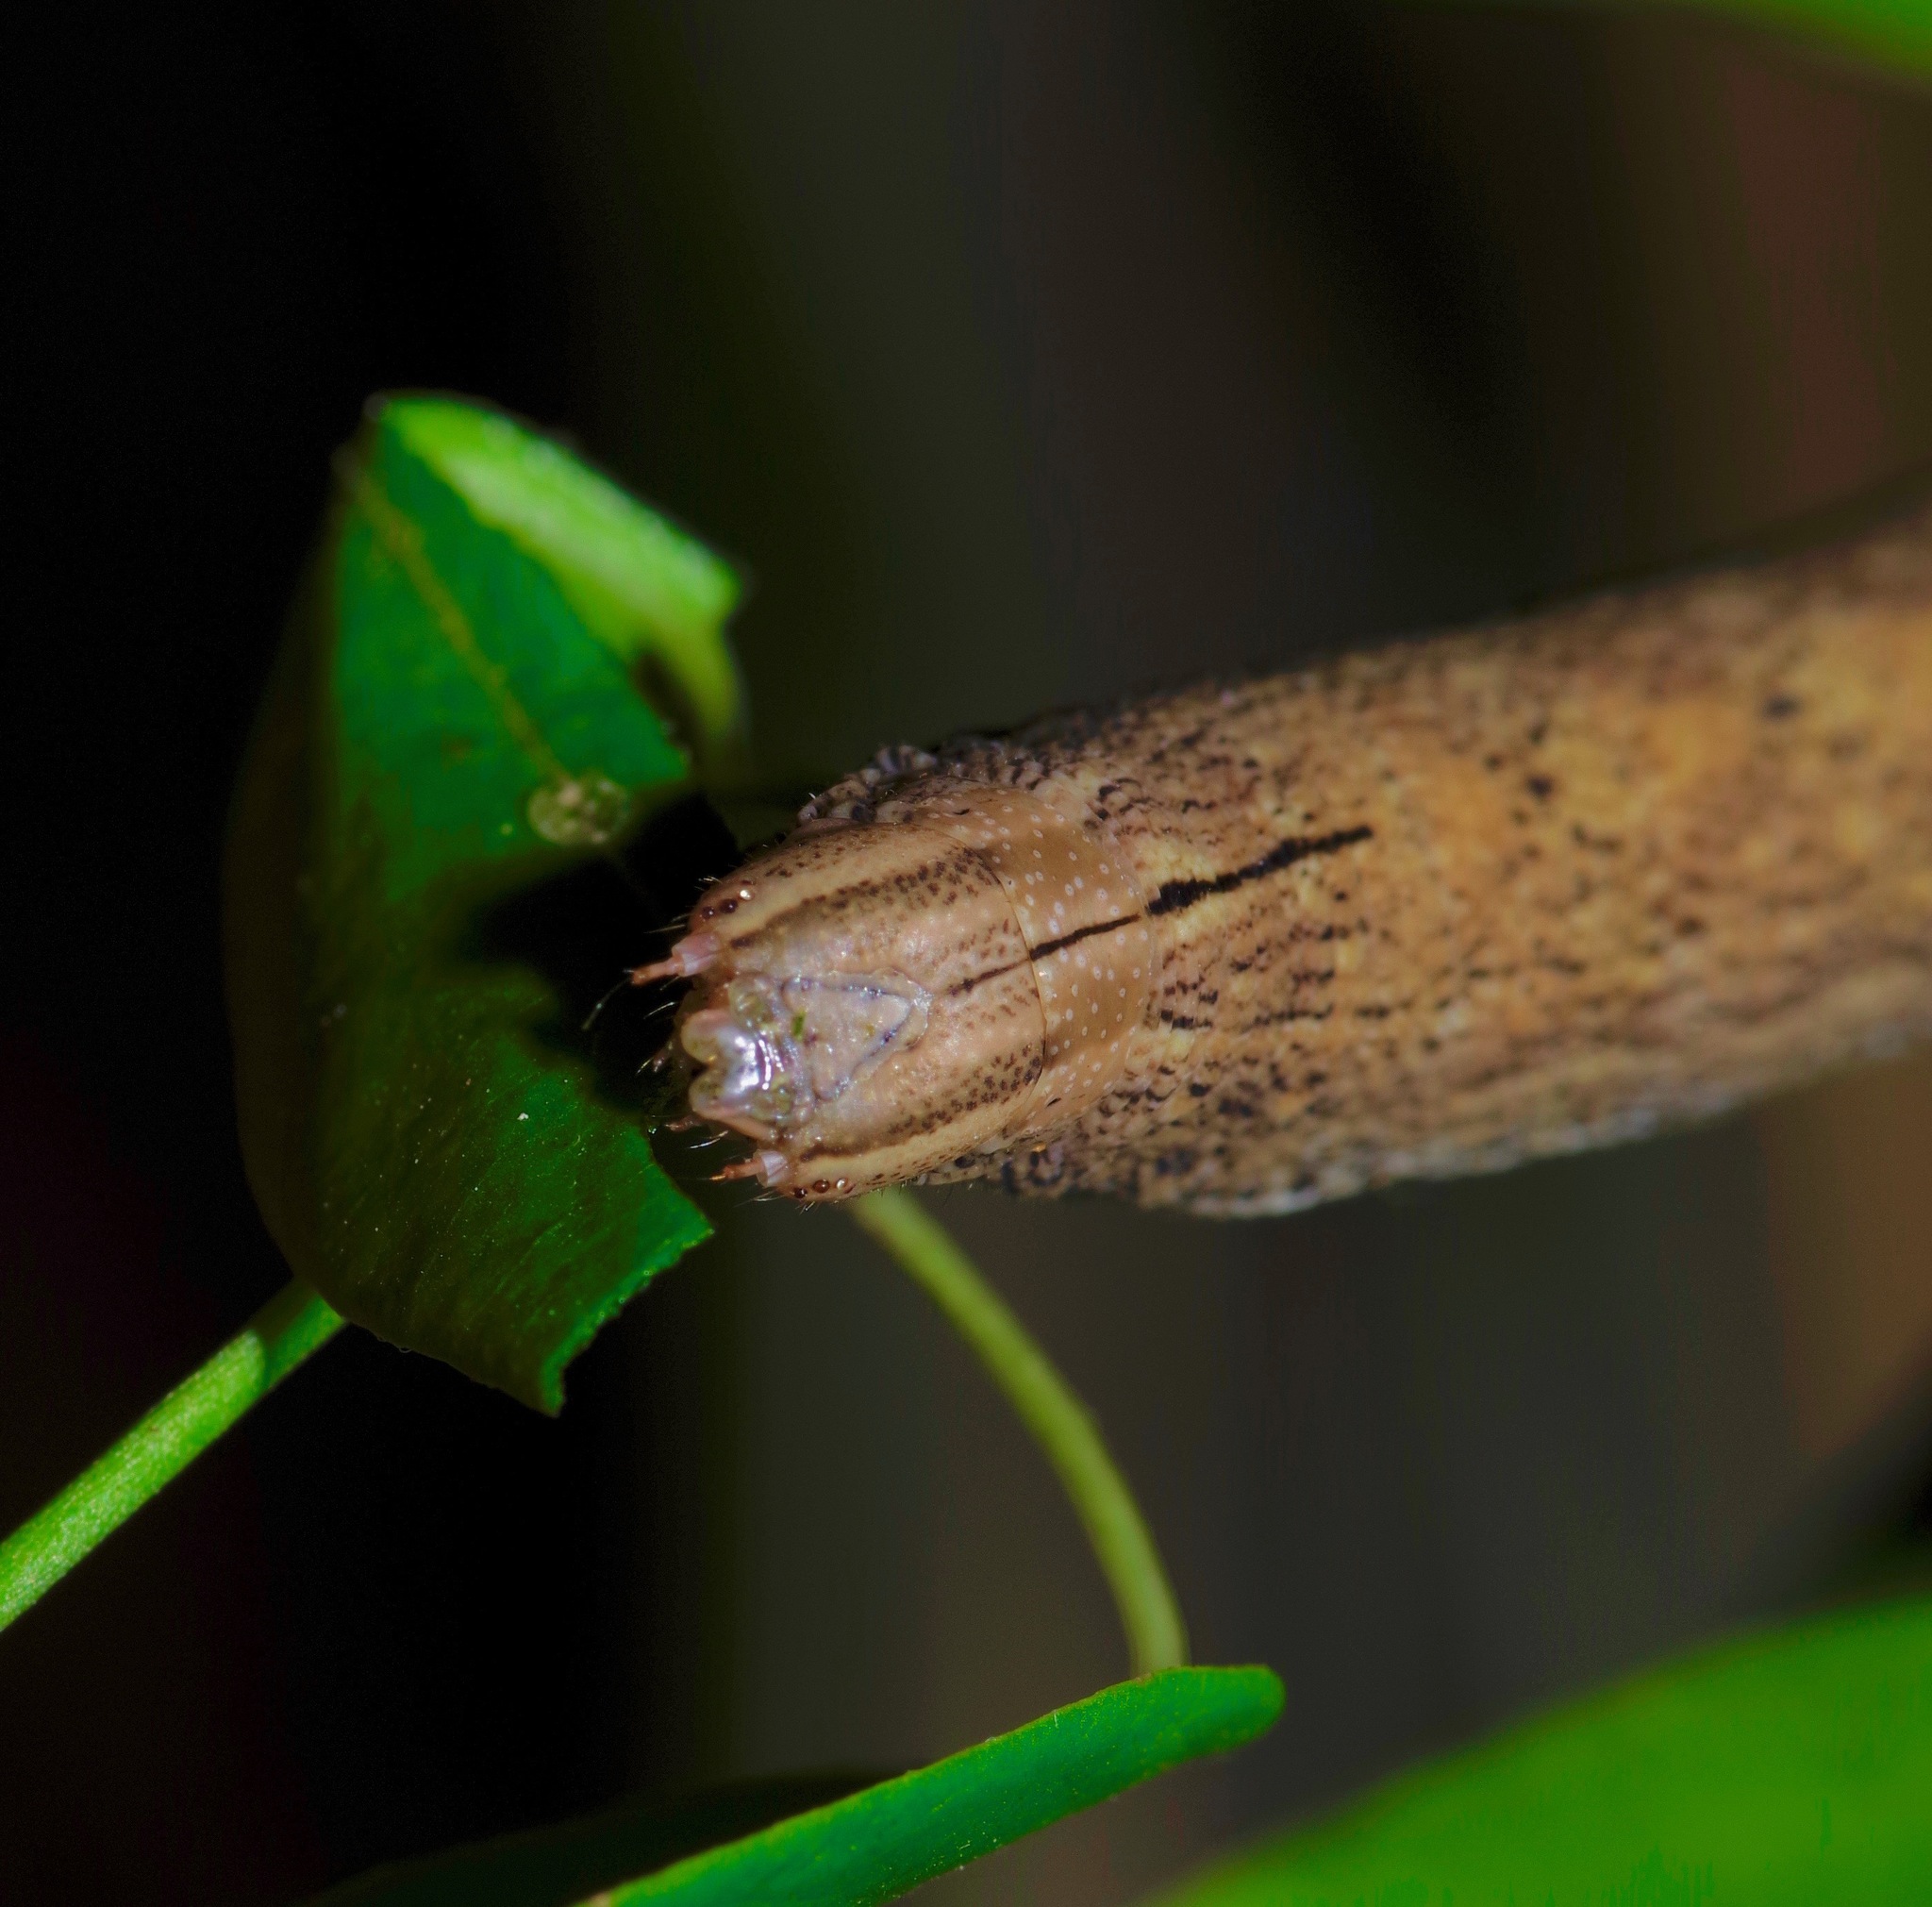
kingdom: Animalia
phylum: Arthropoda
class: Insecta
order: Lepidoptera
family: Sphingidae
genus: Erinnyis
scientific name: Erinnyis obscura
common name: Obscure sphinx
